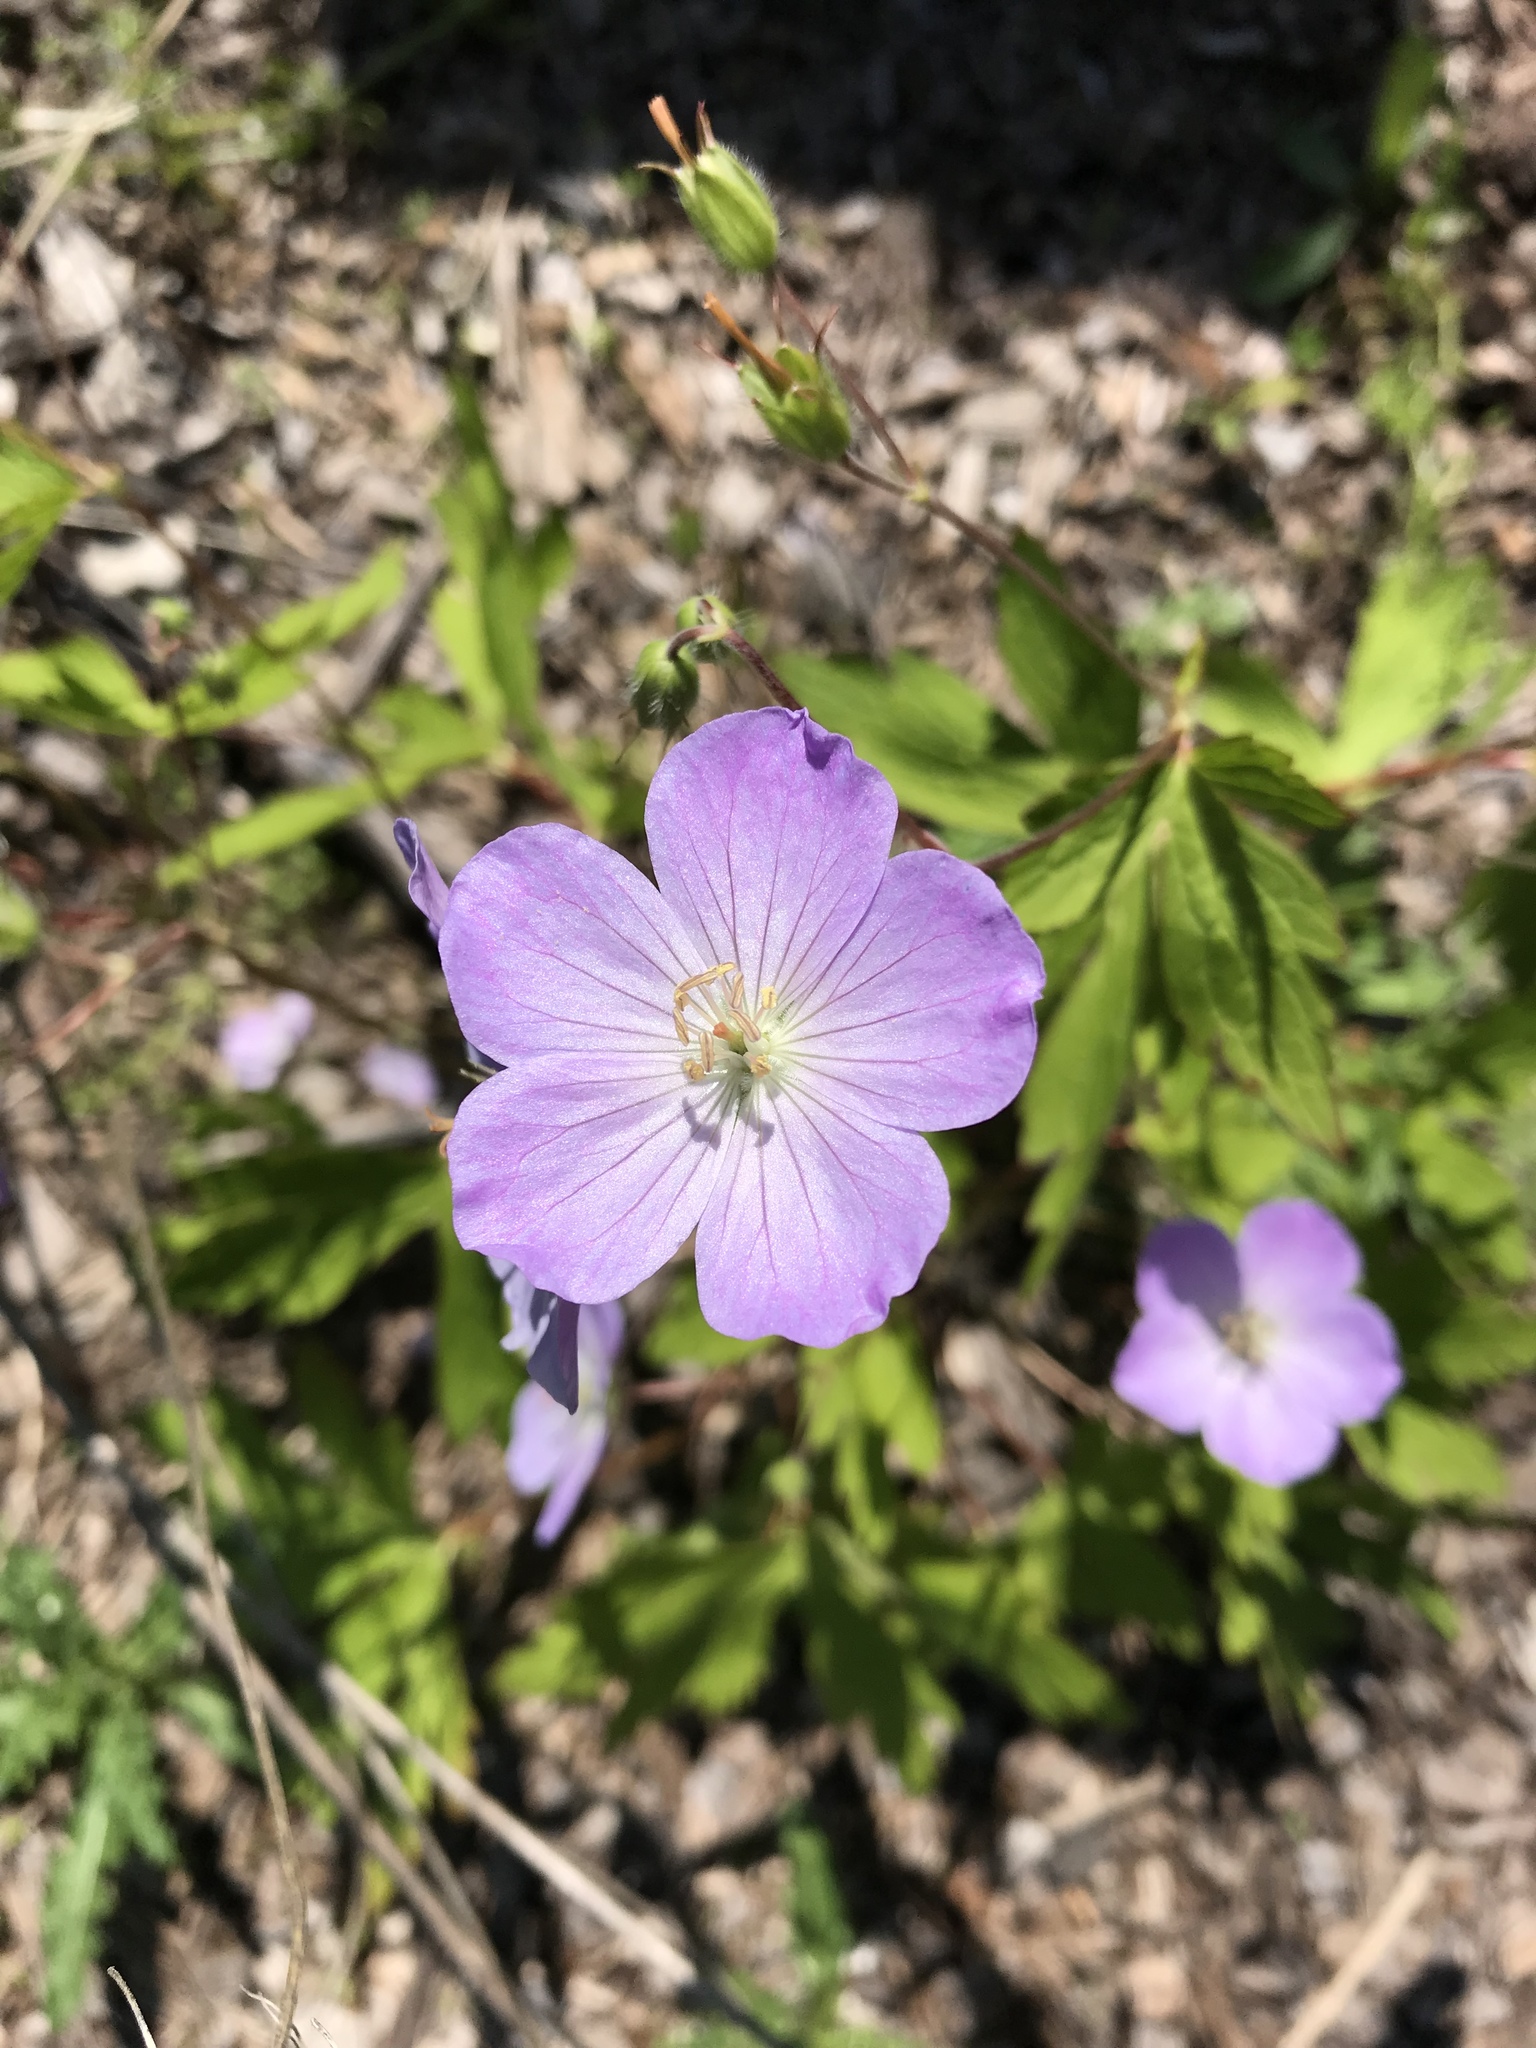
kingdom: Plantae
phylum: Tracheophyta
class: Magnoliopsida
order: Geraniales
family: Geraniaceae
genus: Geranium
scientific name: Geranium maculatum
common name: Spotted geranium
